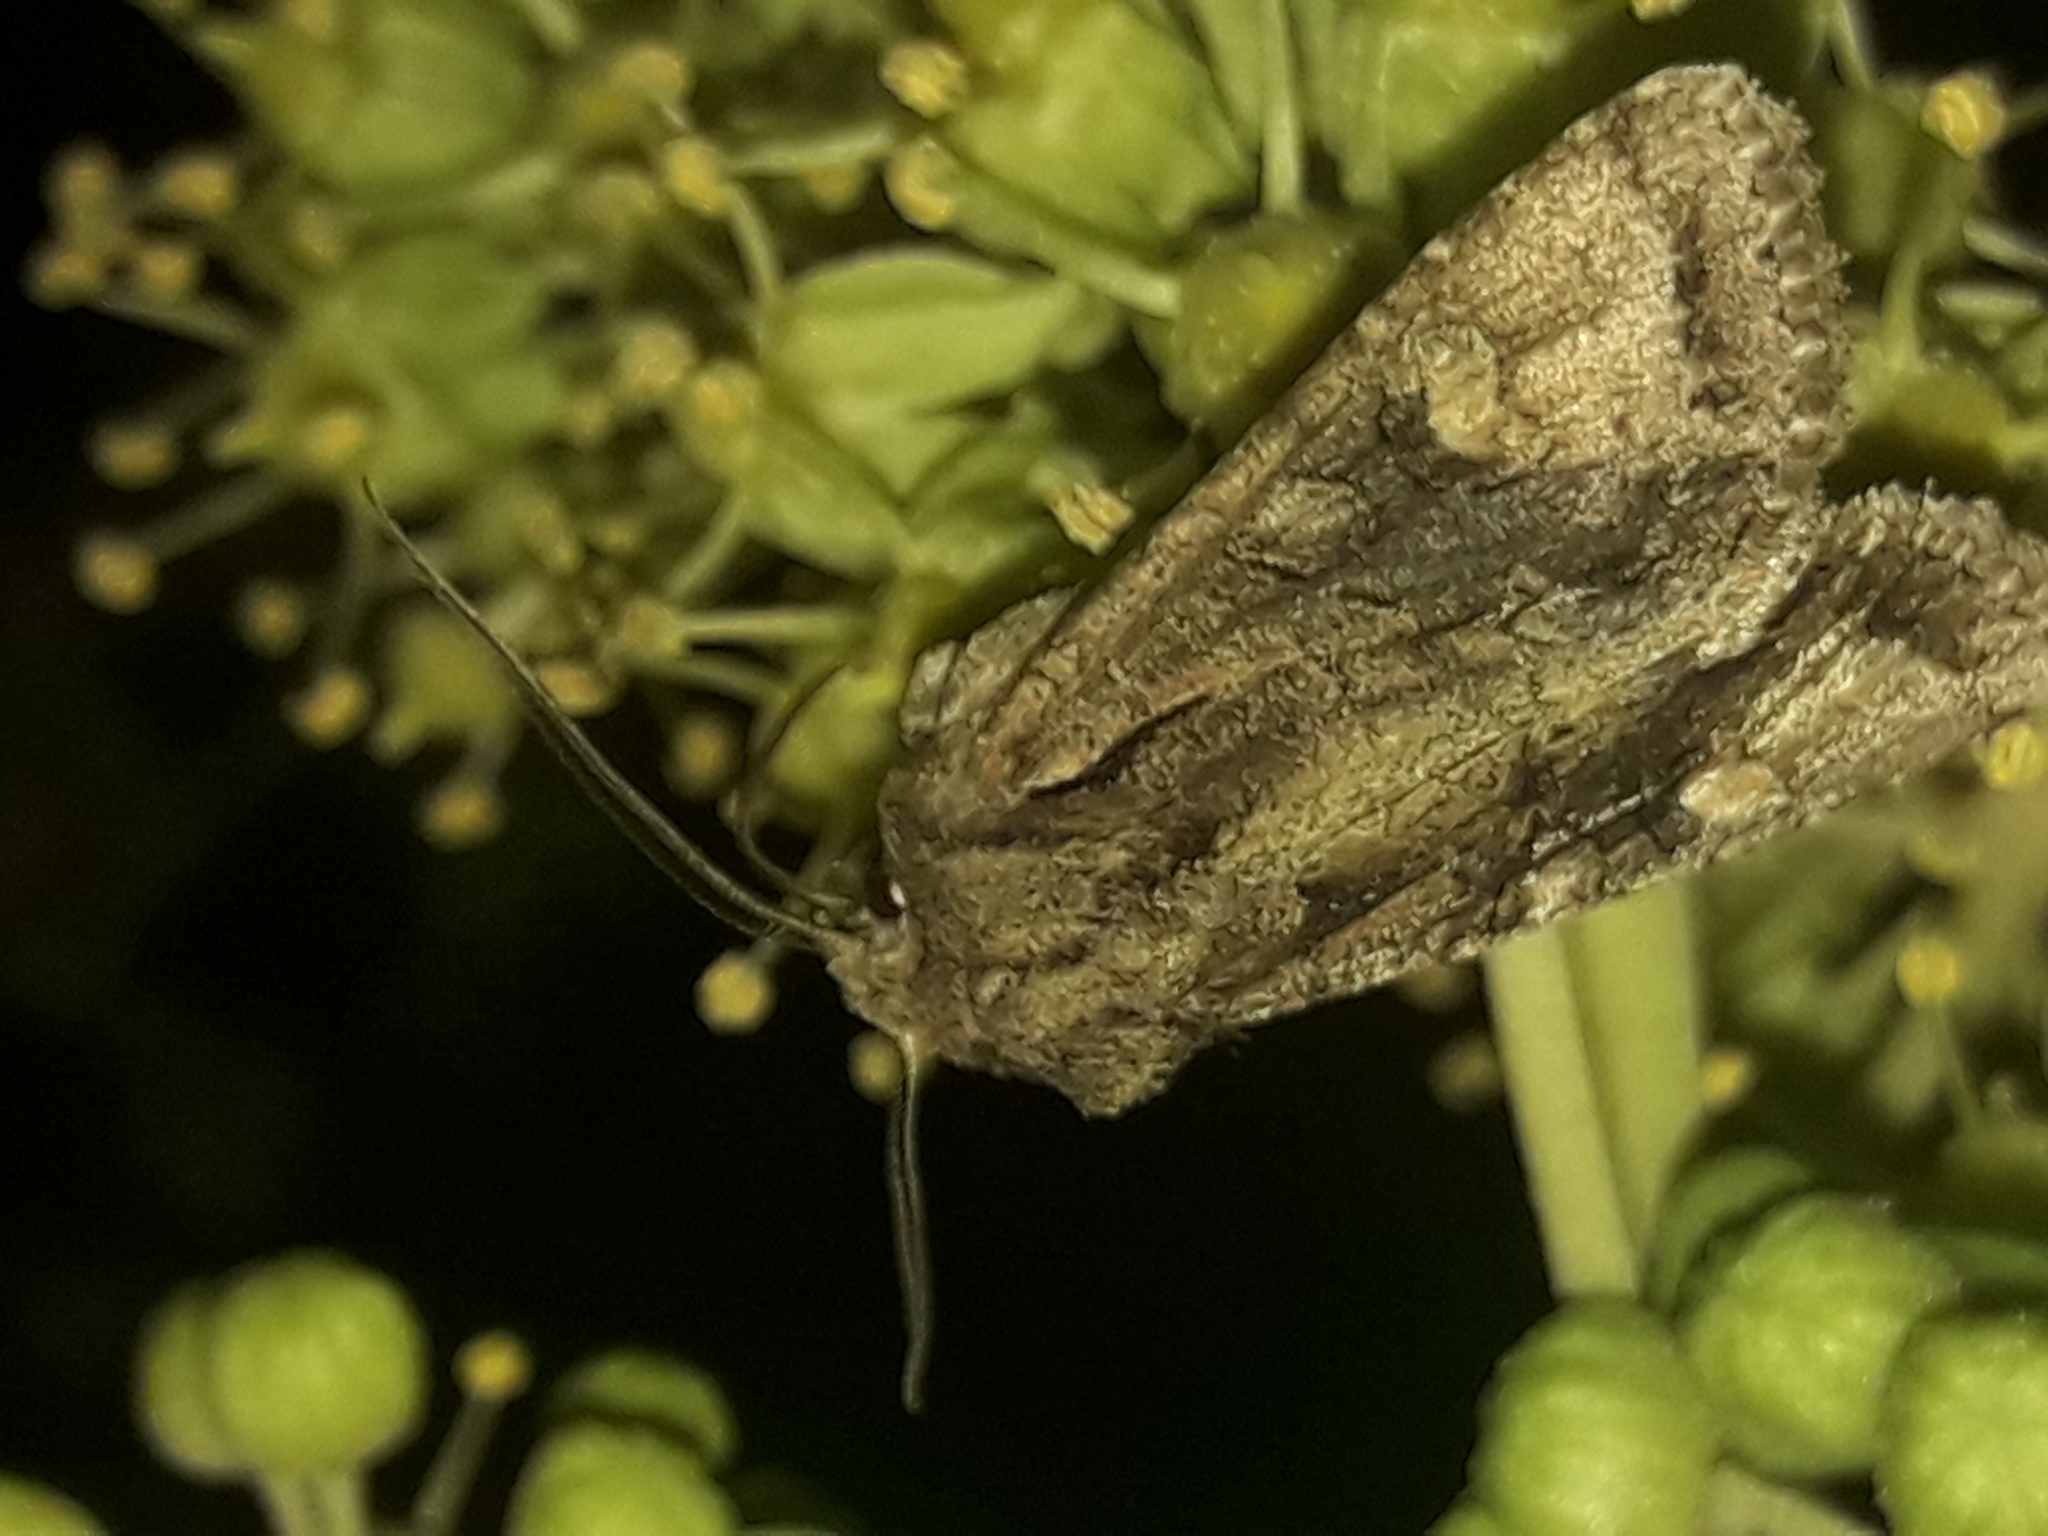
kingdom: Animalia
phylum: Arthropoda
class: Insecta
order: Lepidoptera
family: Noctuidae
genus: Ichneutica
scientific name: Ichneutica mutans
